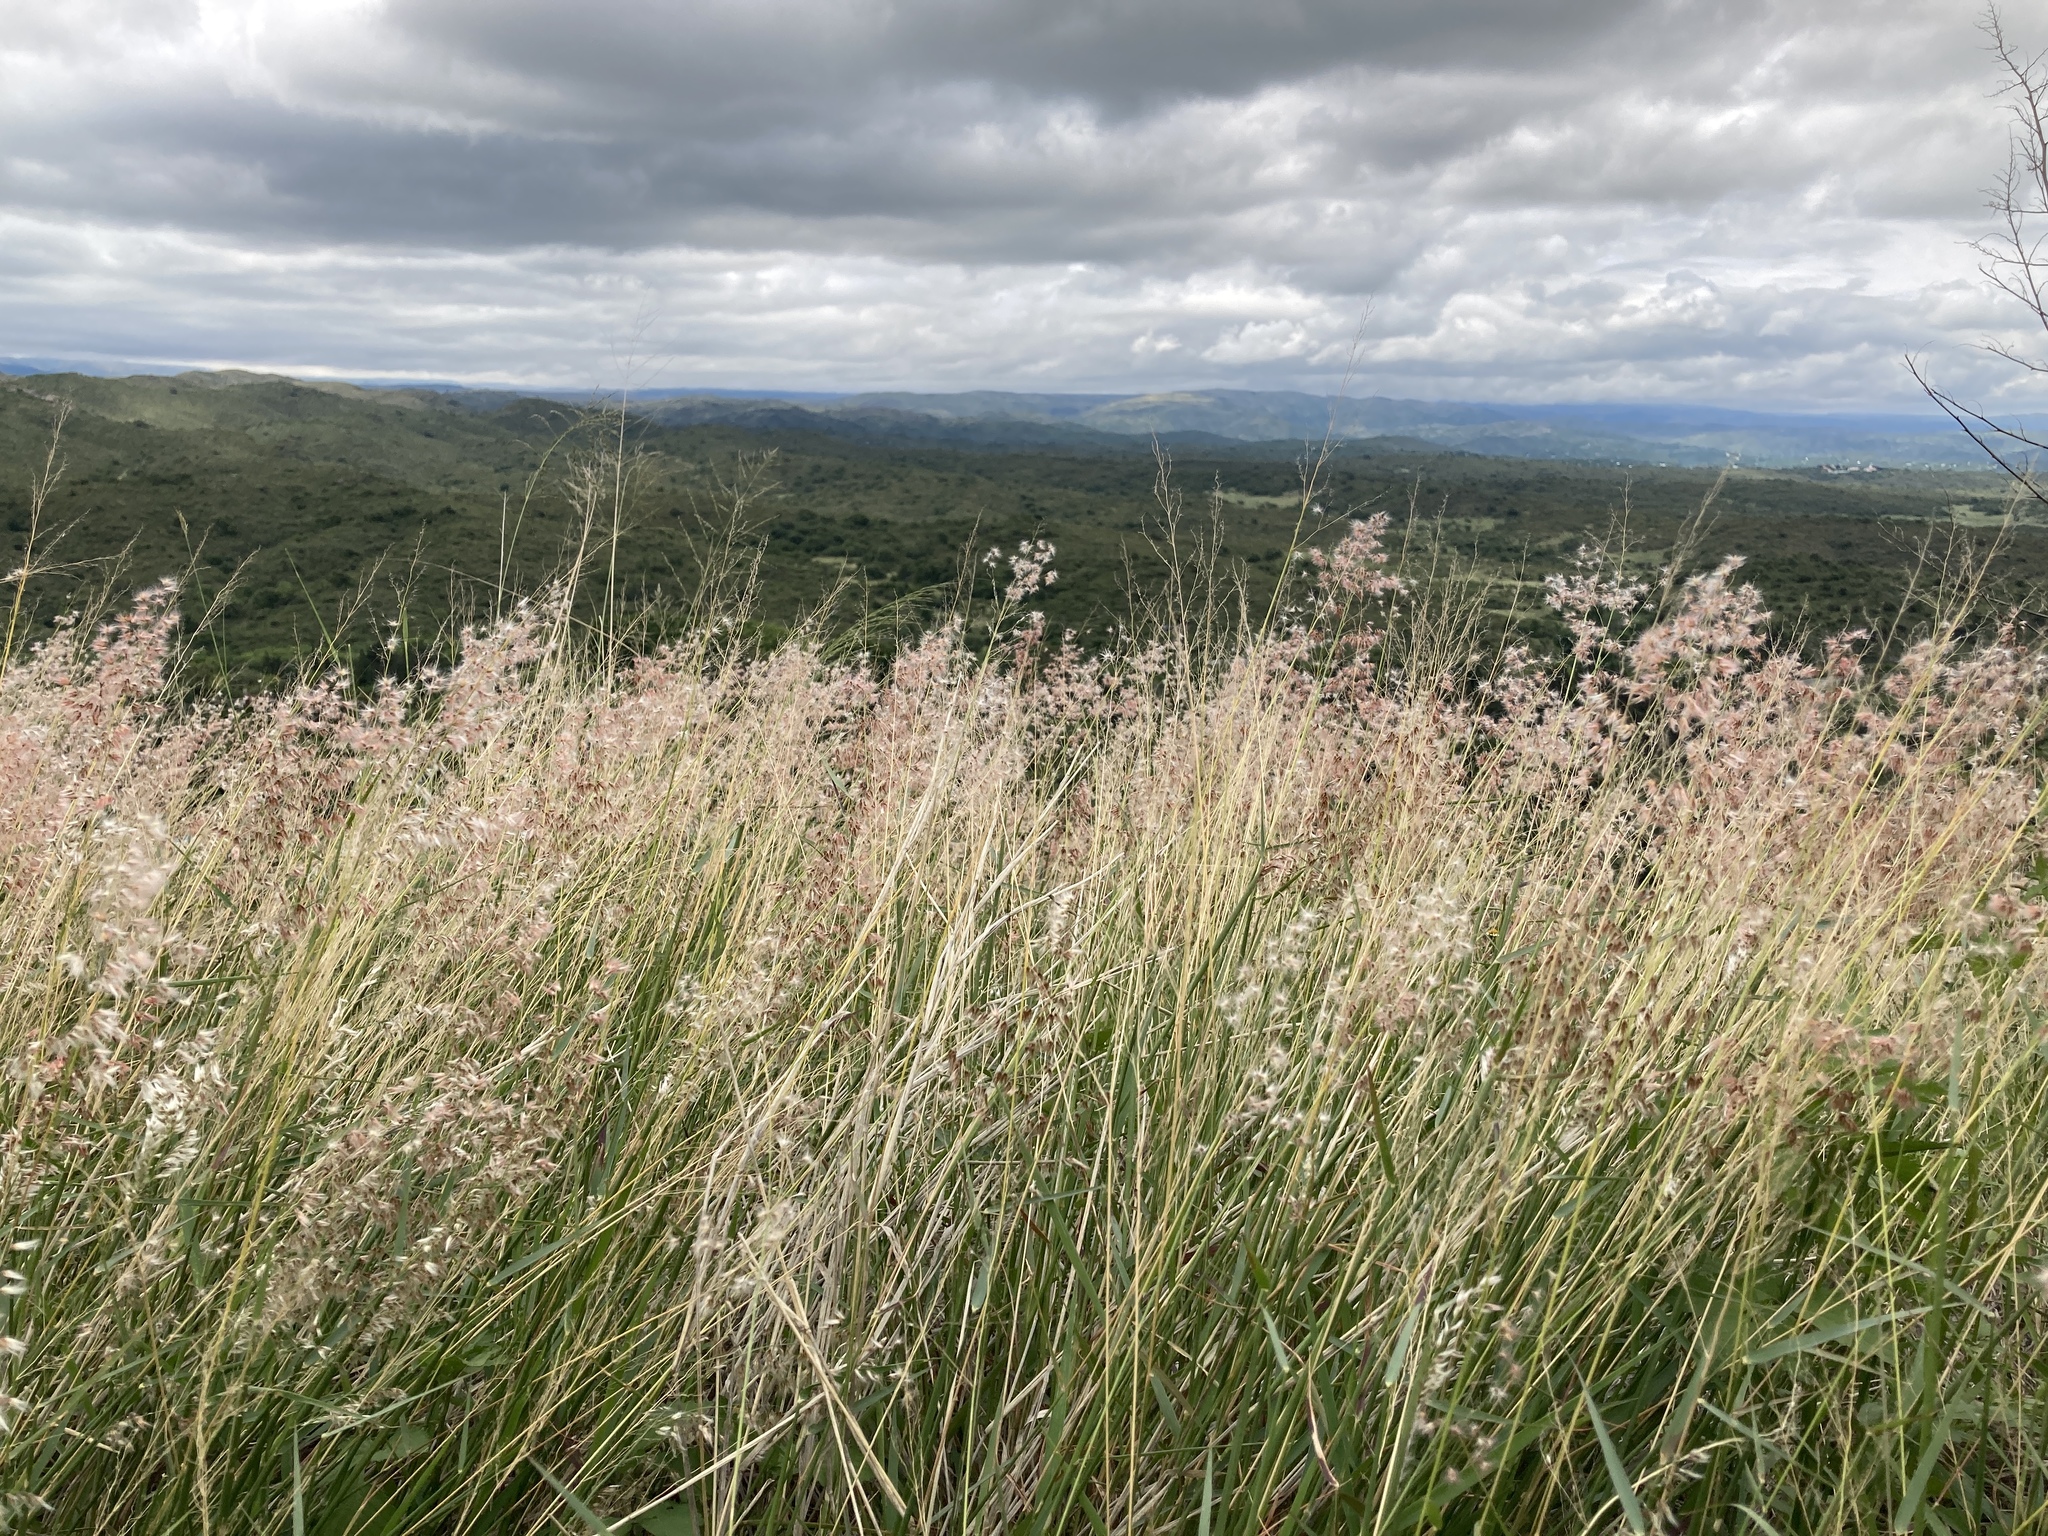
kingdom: Plantae
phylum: Tracheophyta
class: Liliopsida
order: Poales
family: Poaceae
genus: Melinis
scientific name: Melinis repens
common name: Rose natal grass
